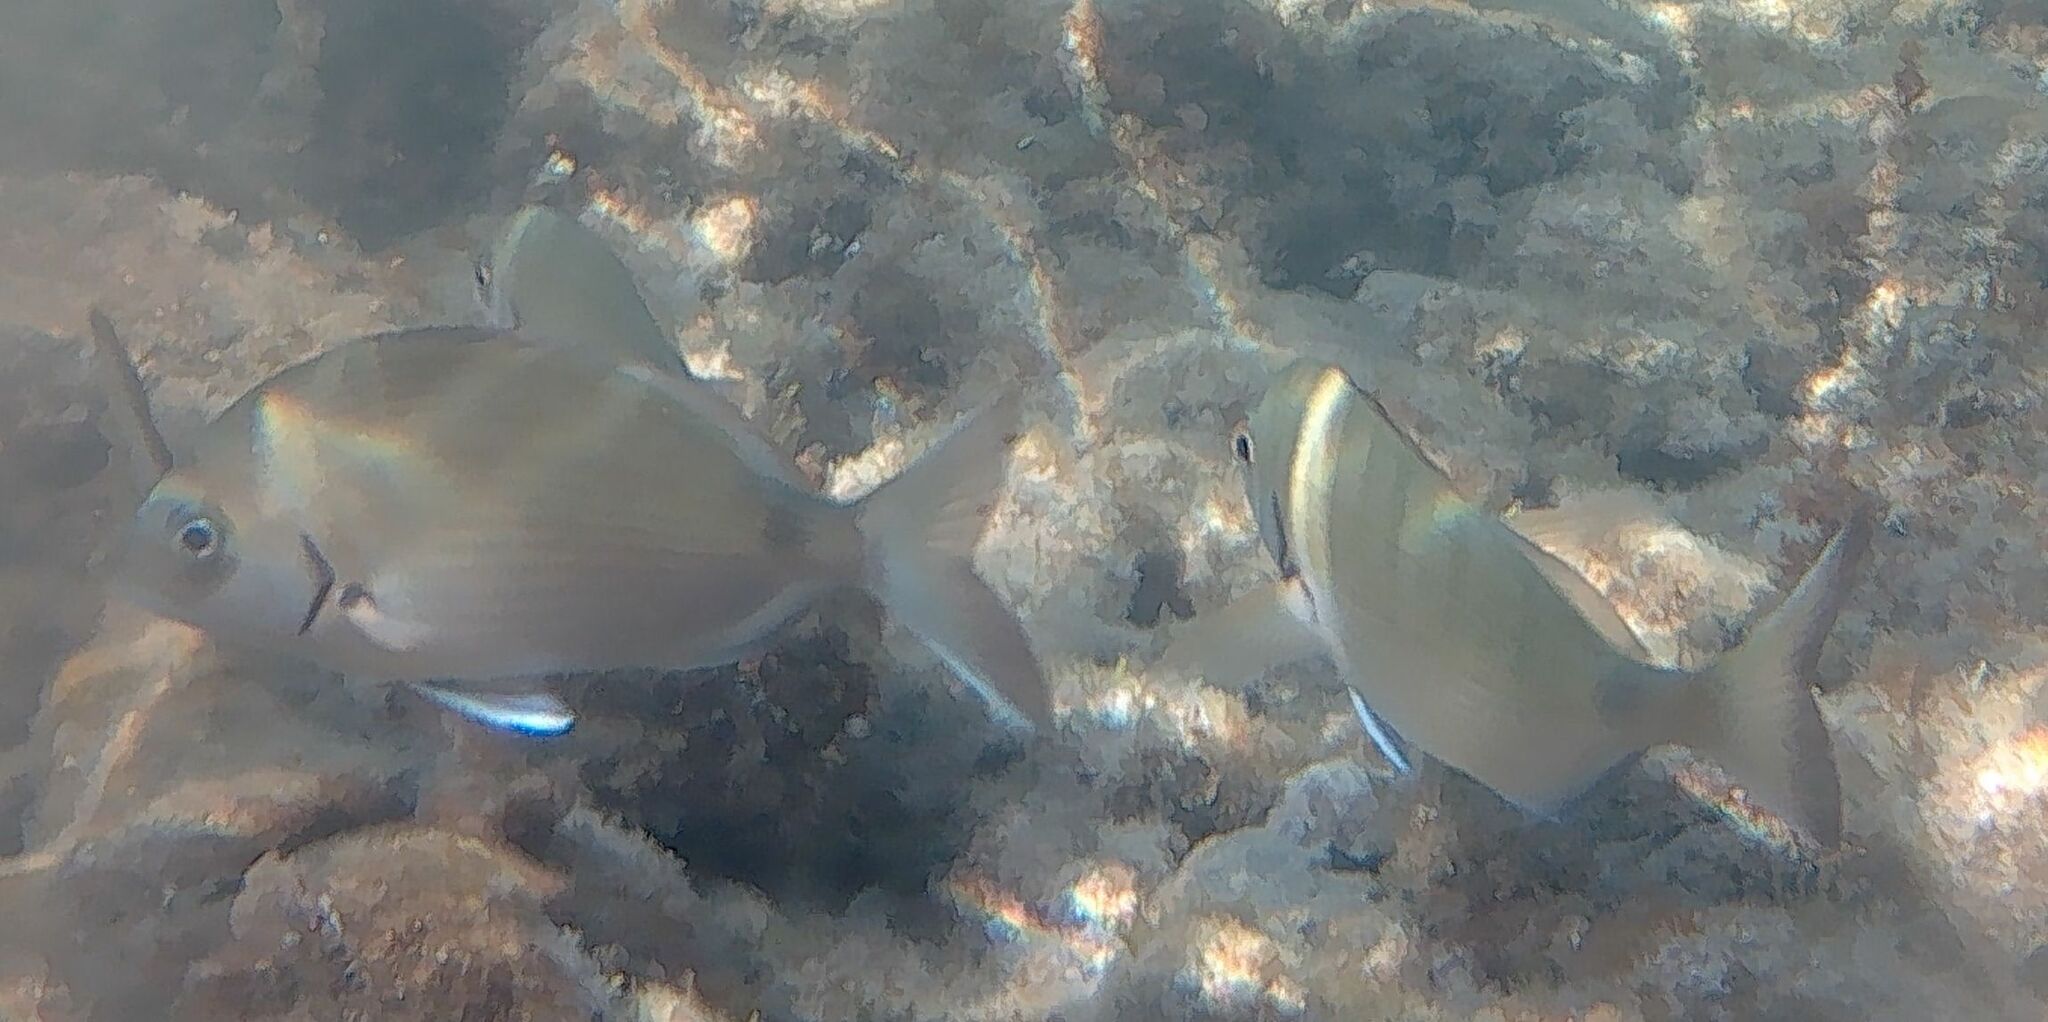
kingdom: Animalia
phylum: Chordata
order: Perciformes
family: Sparidae
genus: Diplodus
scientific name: Diplodus sargus
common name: White seabream
